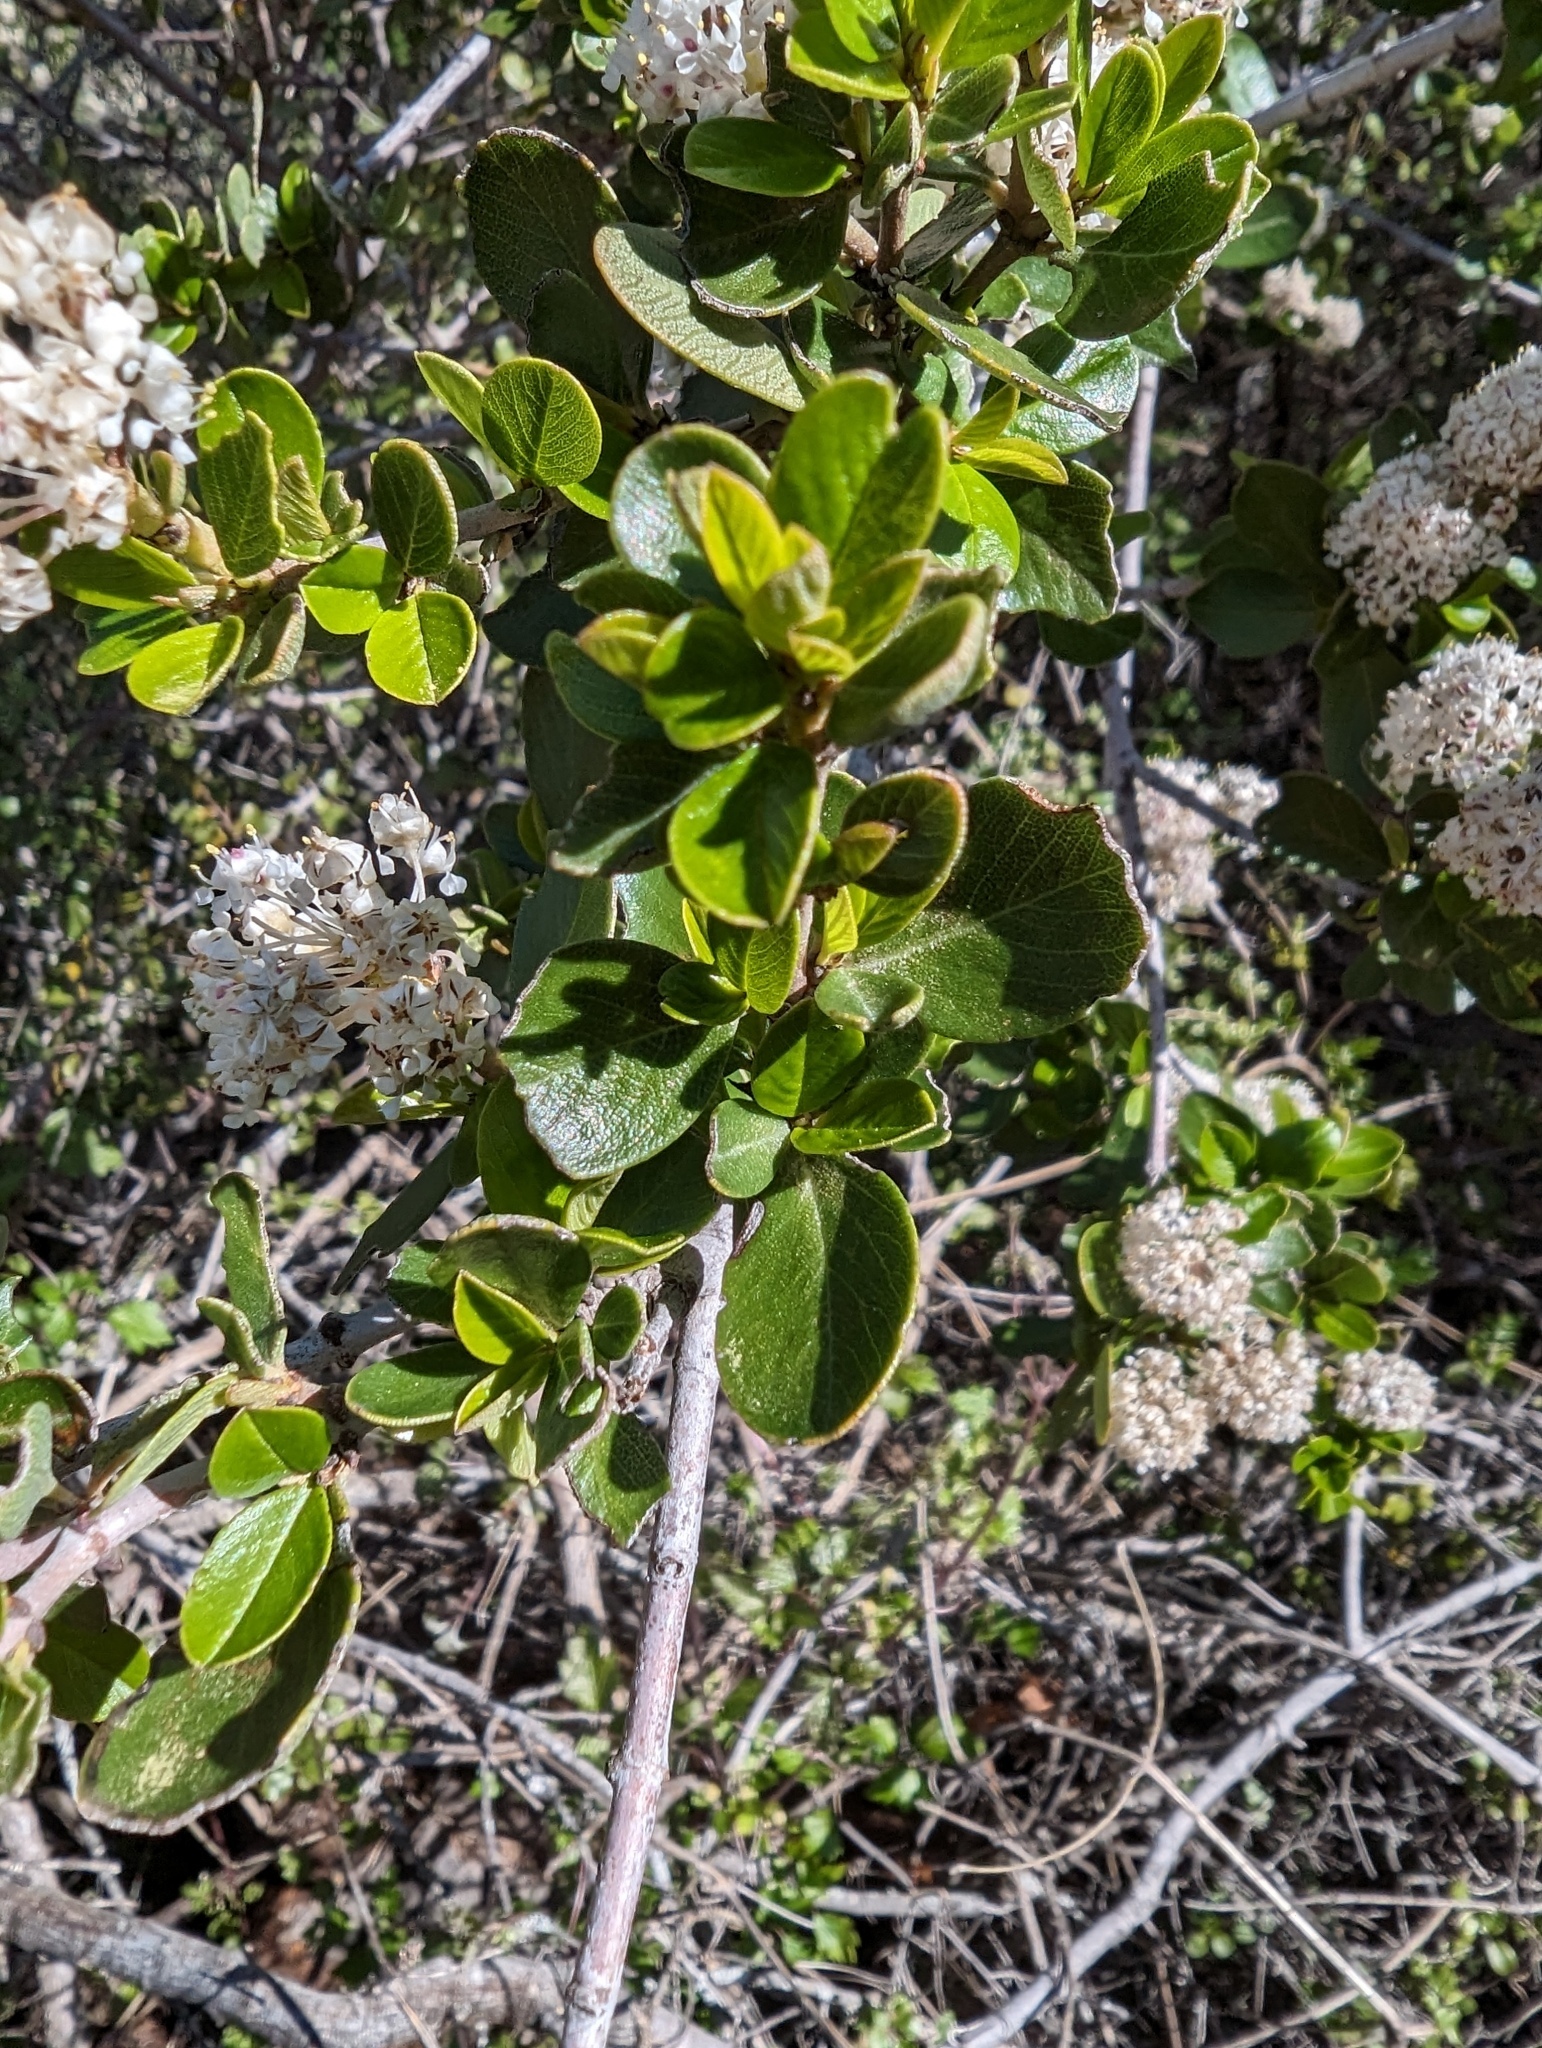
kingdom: Plantae
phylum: Tracheophyta
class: Magnoliopsida
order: Rosales
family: Rhamnaceae
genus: Ceanothus
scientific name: Ceanothus cuneatus
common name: Cuneate ceanothus
